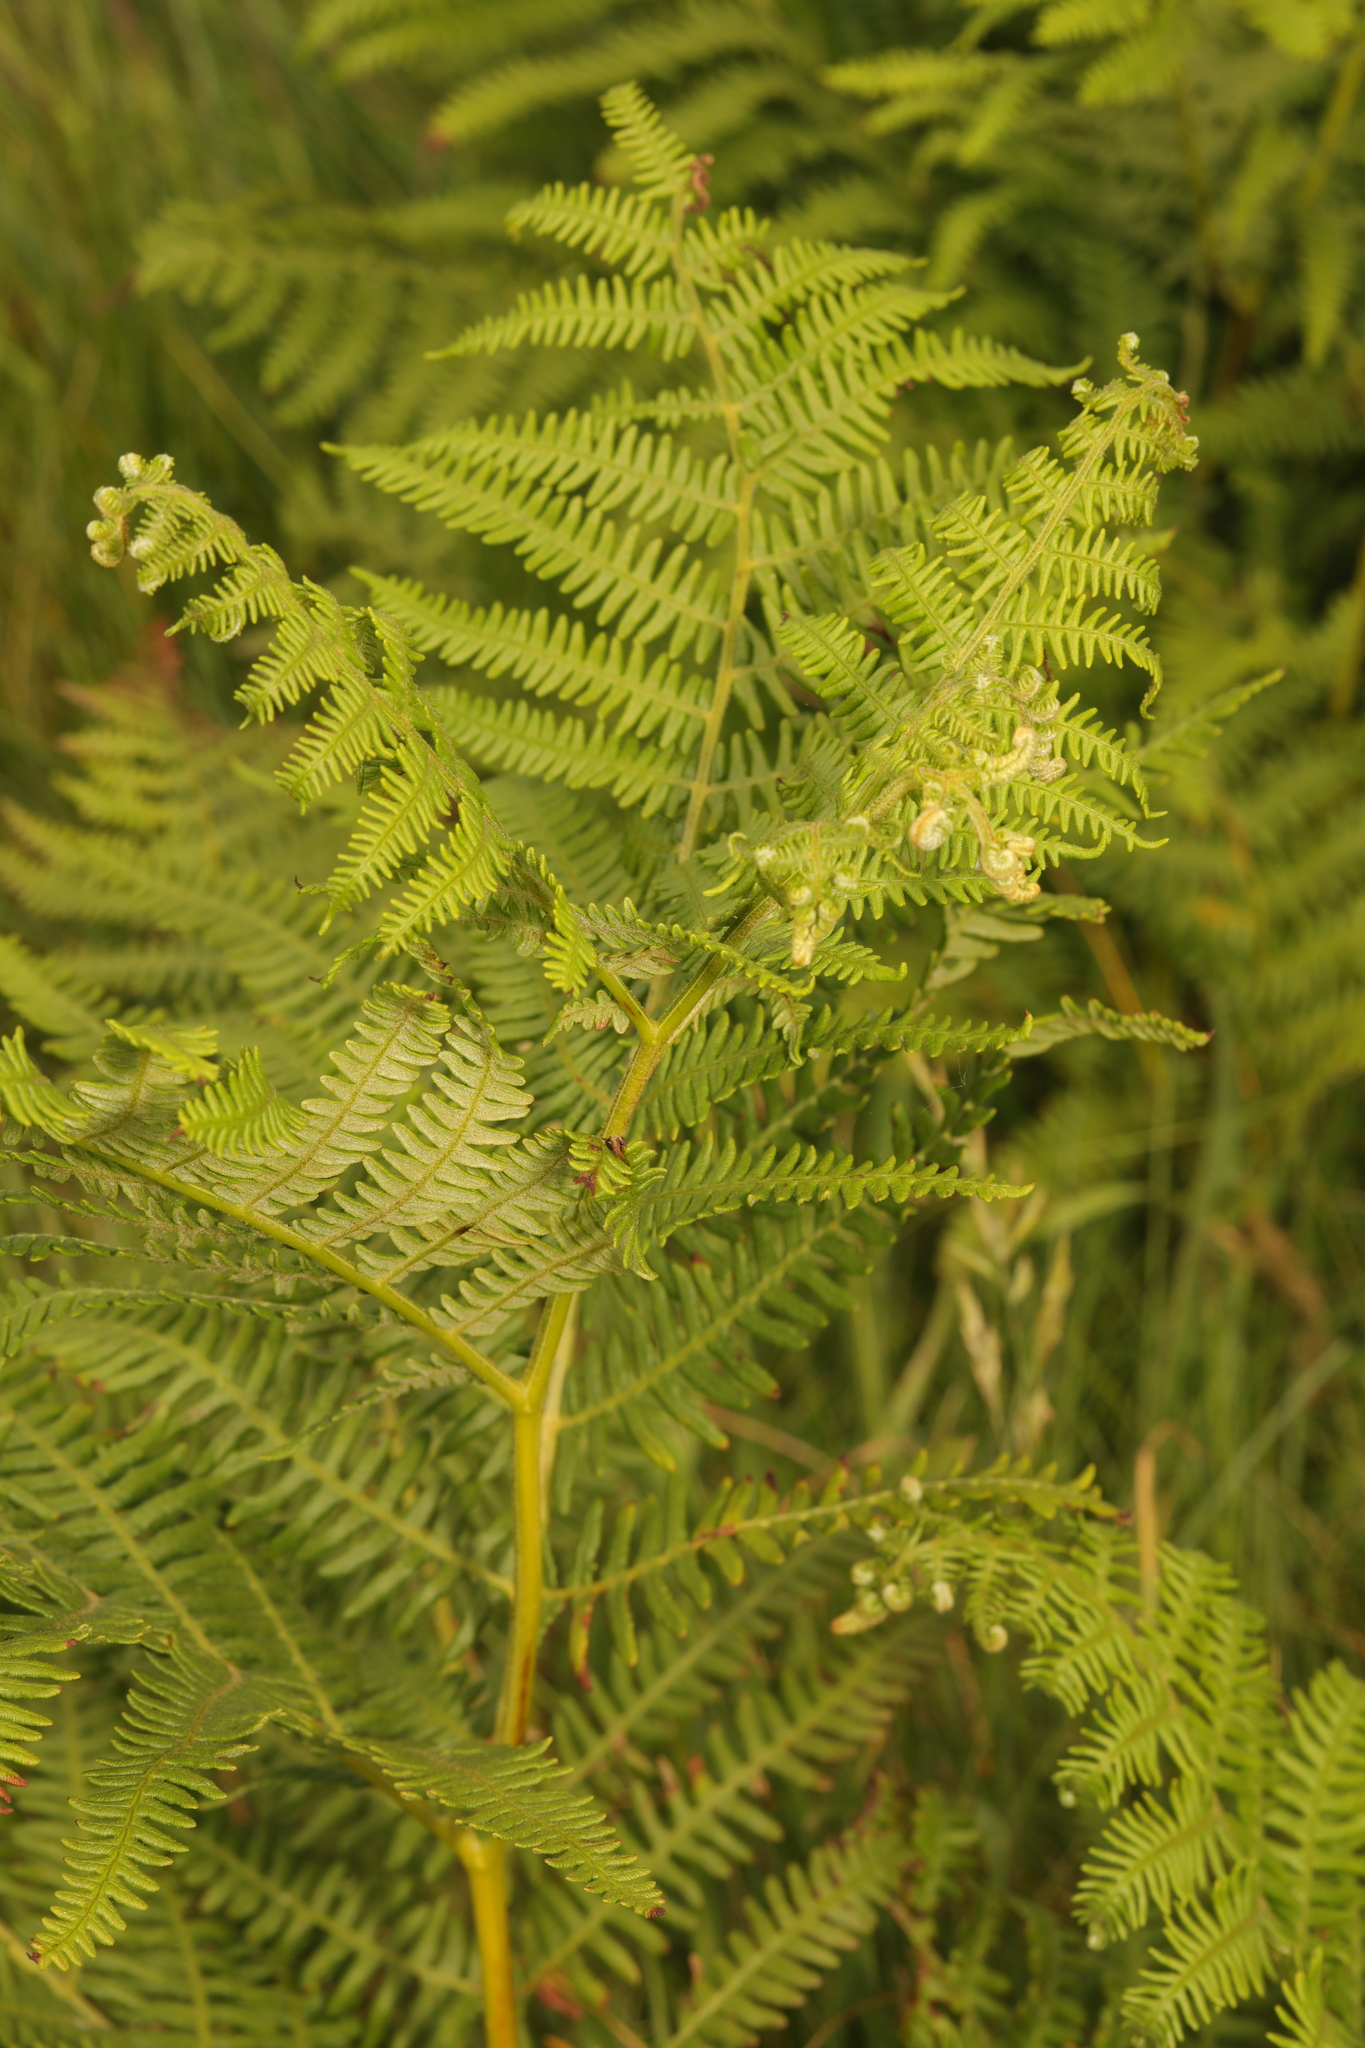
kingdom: Plantae
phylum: Tracheophyta
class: Polypodiopsida
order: Polypodiales
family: Dennstaedtiaceae
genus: Pteridium
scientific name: Pteridium aquilinum
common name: Bracken
